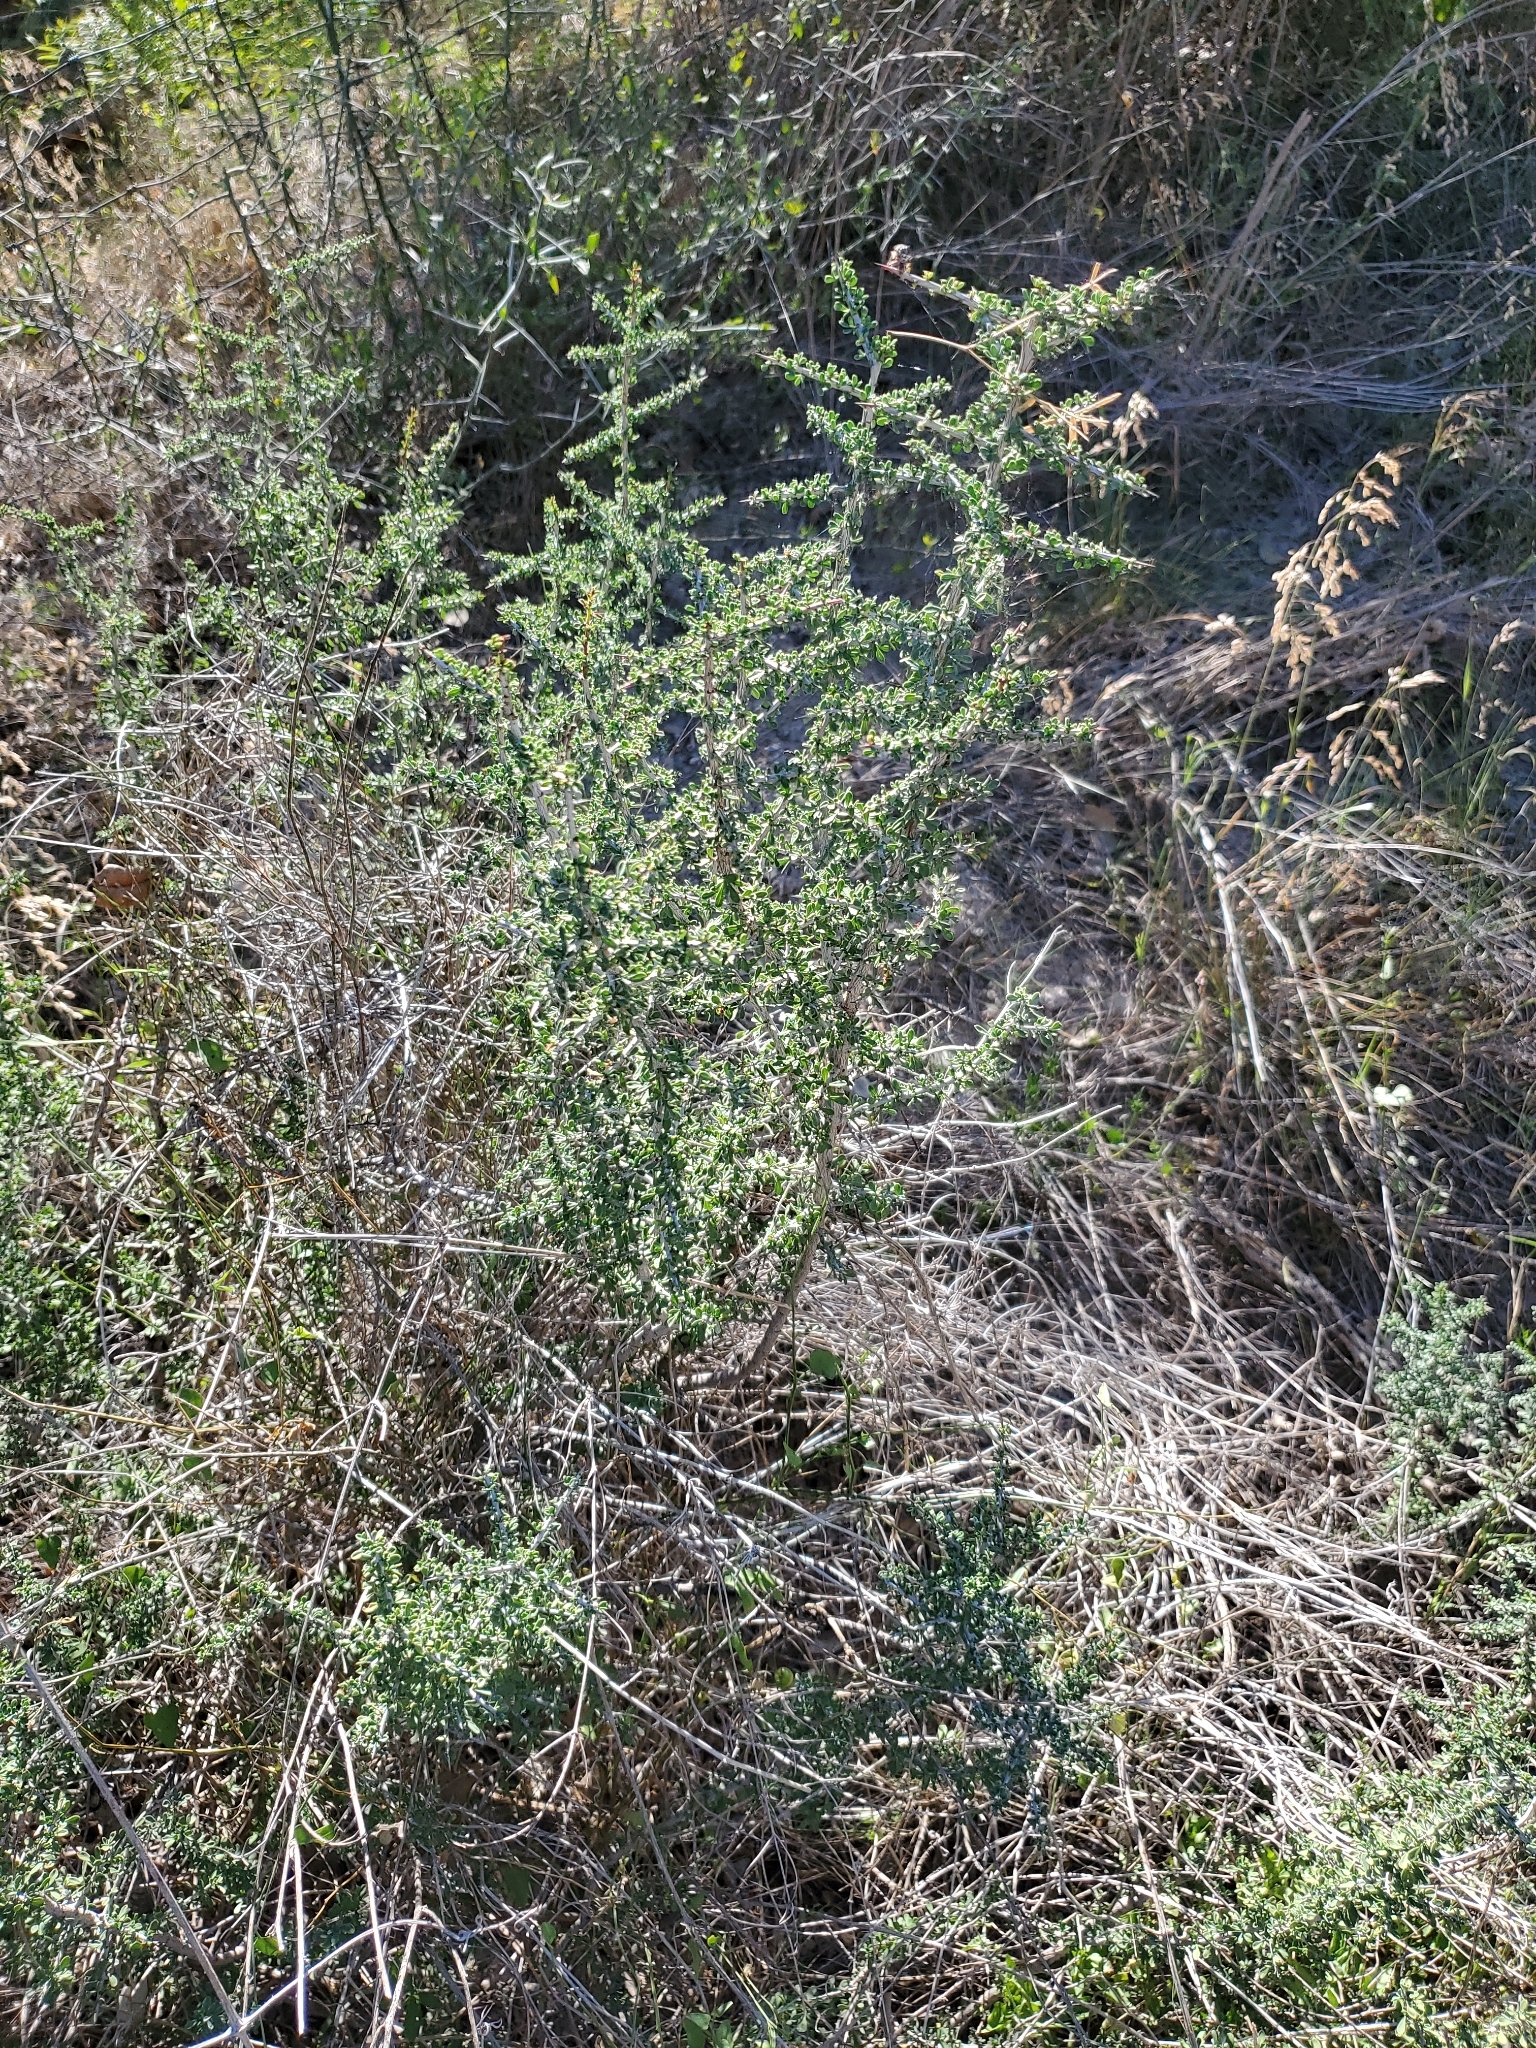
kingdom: Plantae
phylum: Tracheophyta
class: Magnoliopsida
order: Rosales
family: Rhamnaceae
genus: Condalia
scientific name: Condalia spathulata
